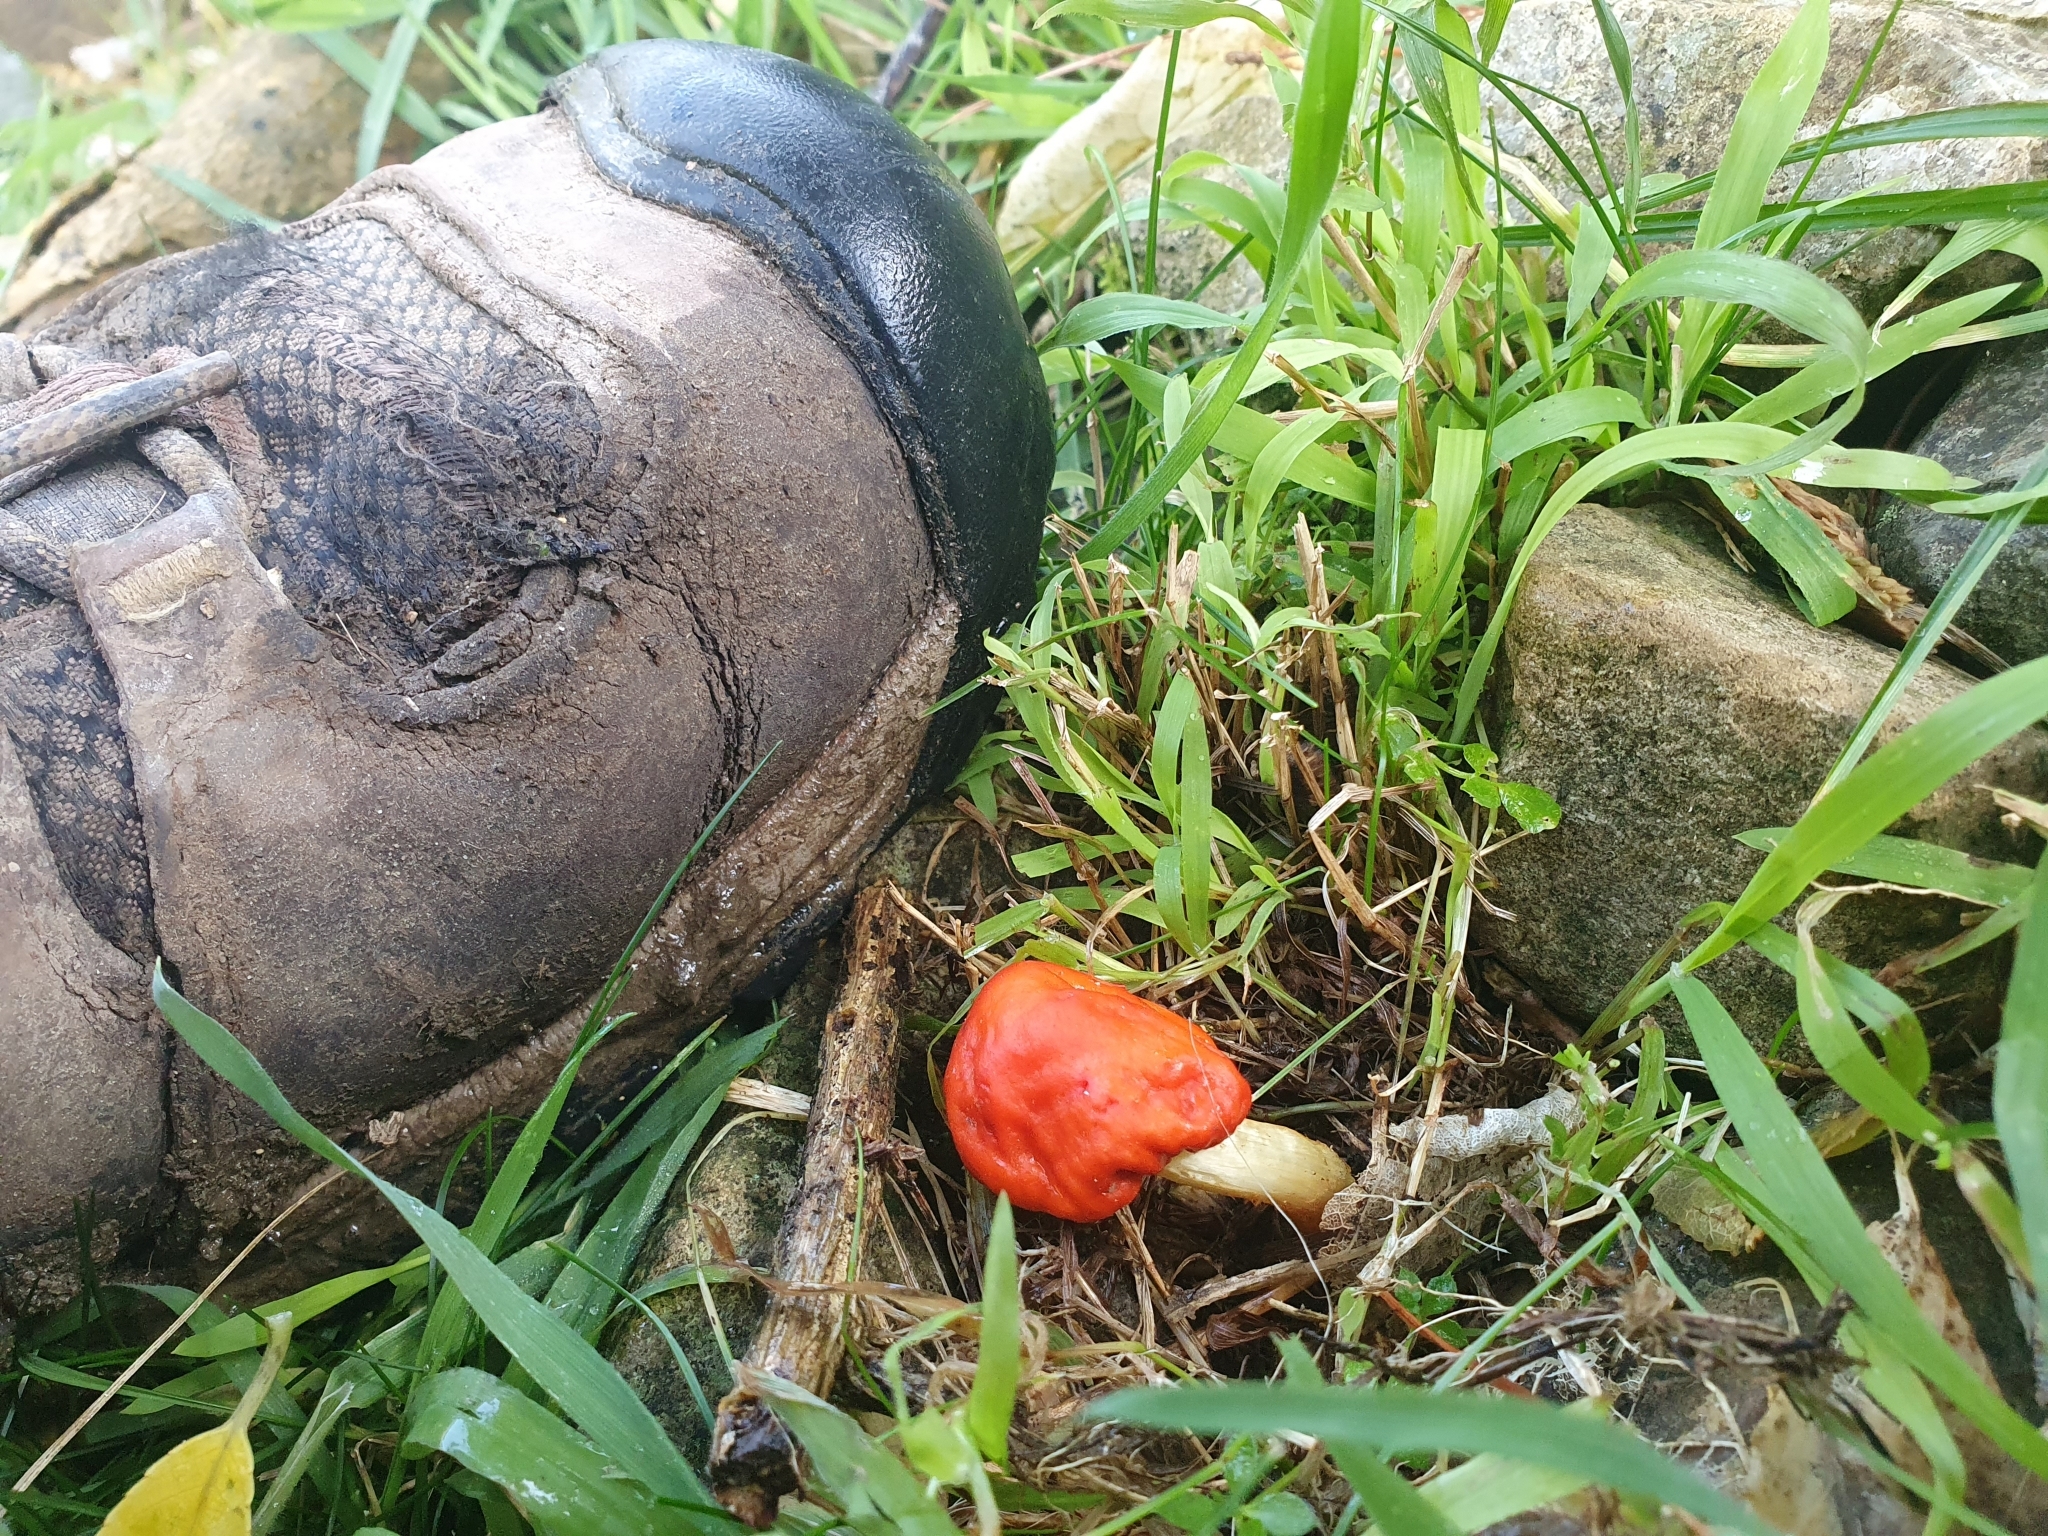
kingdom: Fungi
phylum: Basidiomycota
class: Agaricomycetes
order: Agaricales
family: Strophariaceae
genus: Leratiomyces
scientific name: Leratiomyces erythrocephalus
